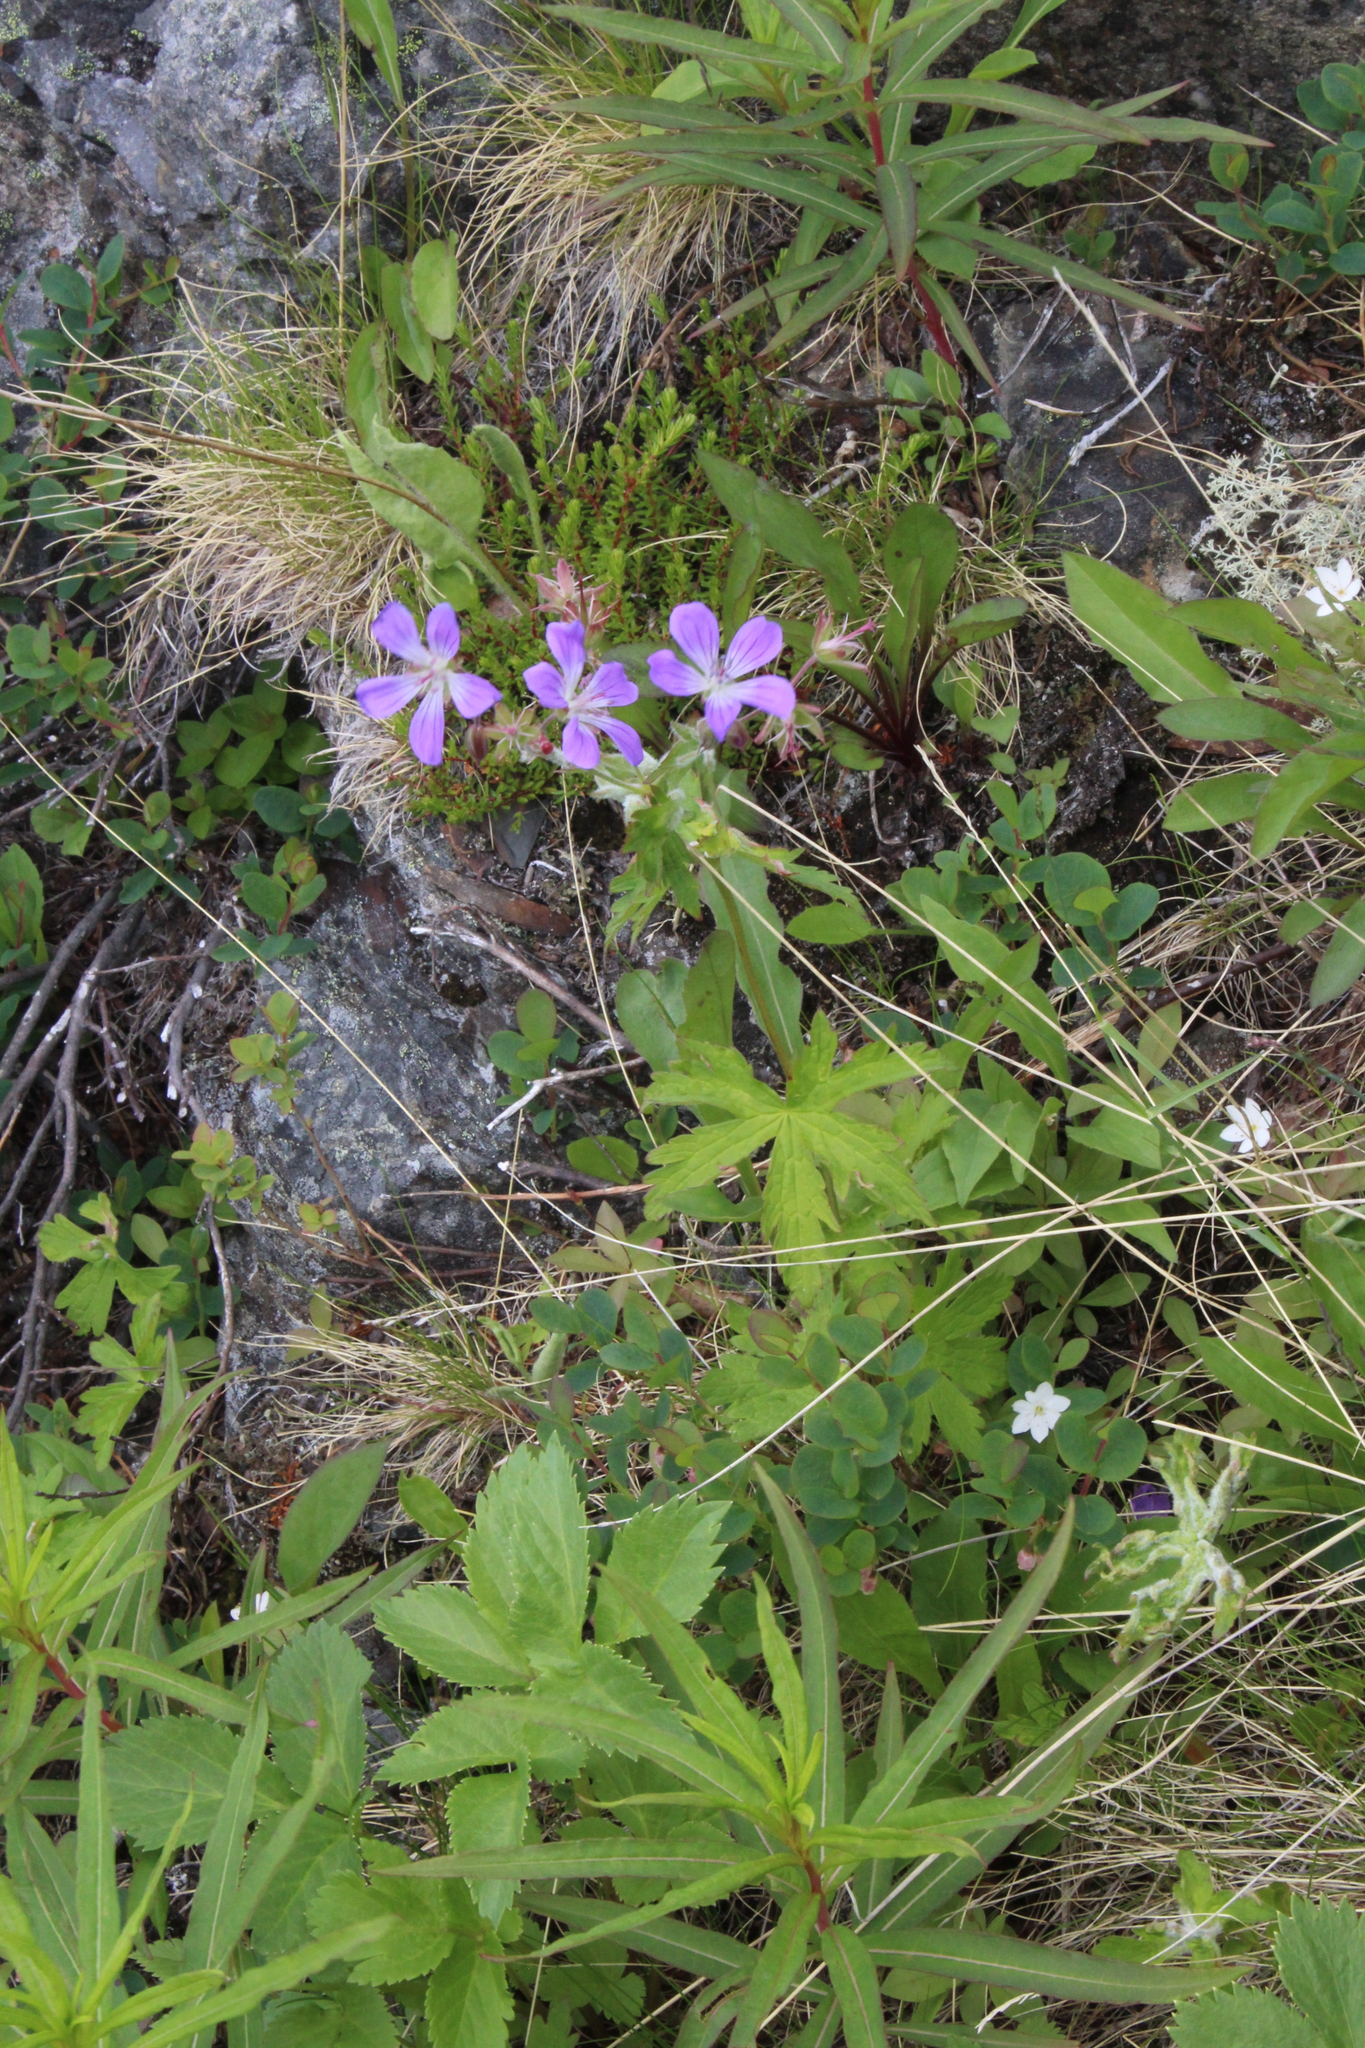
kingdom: Plantae
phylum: Tracheophyta
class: Magnoliopsida
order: Geraniales
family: Geraniaceae
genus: Geranium
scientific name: Geranium sylvaticum
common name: Wood crane's-bill
